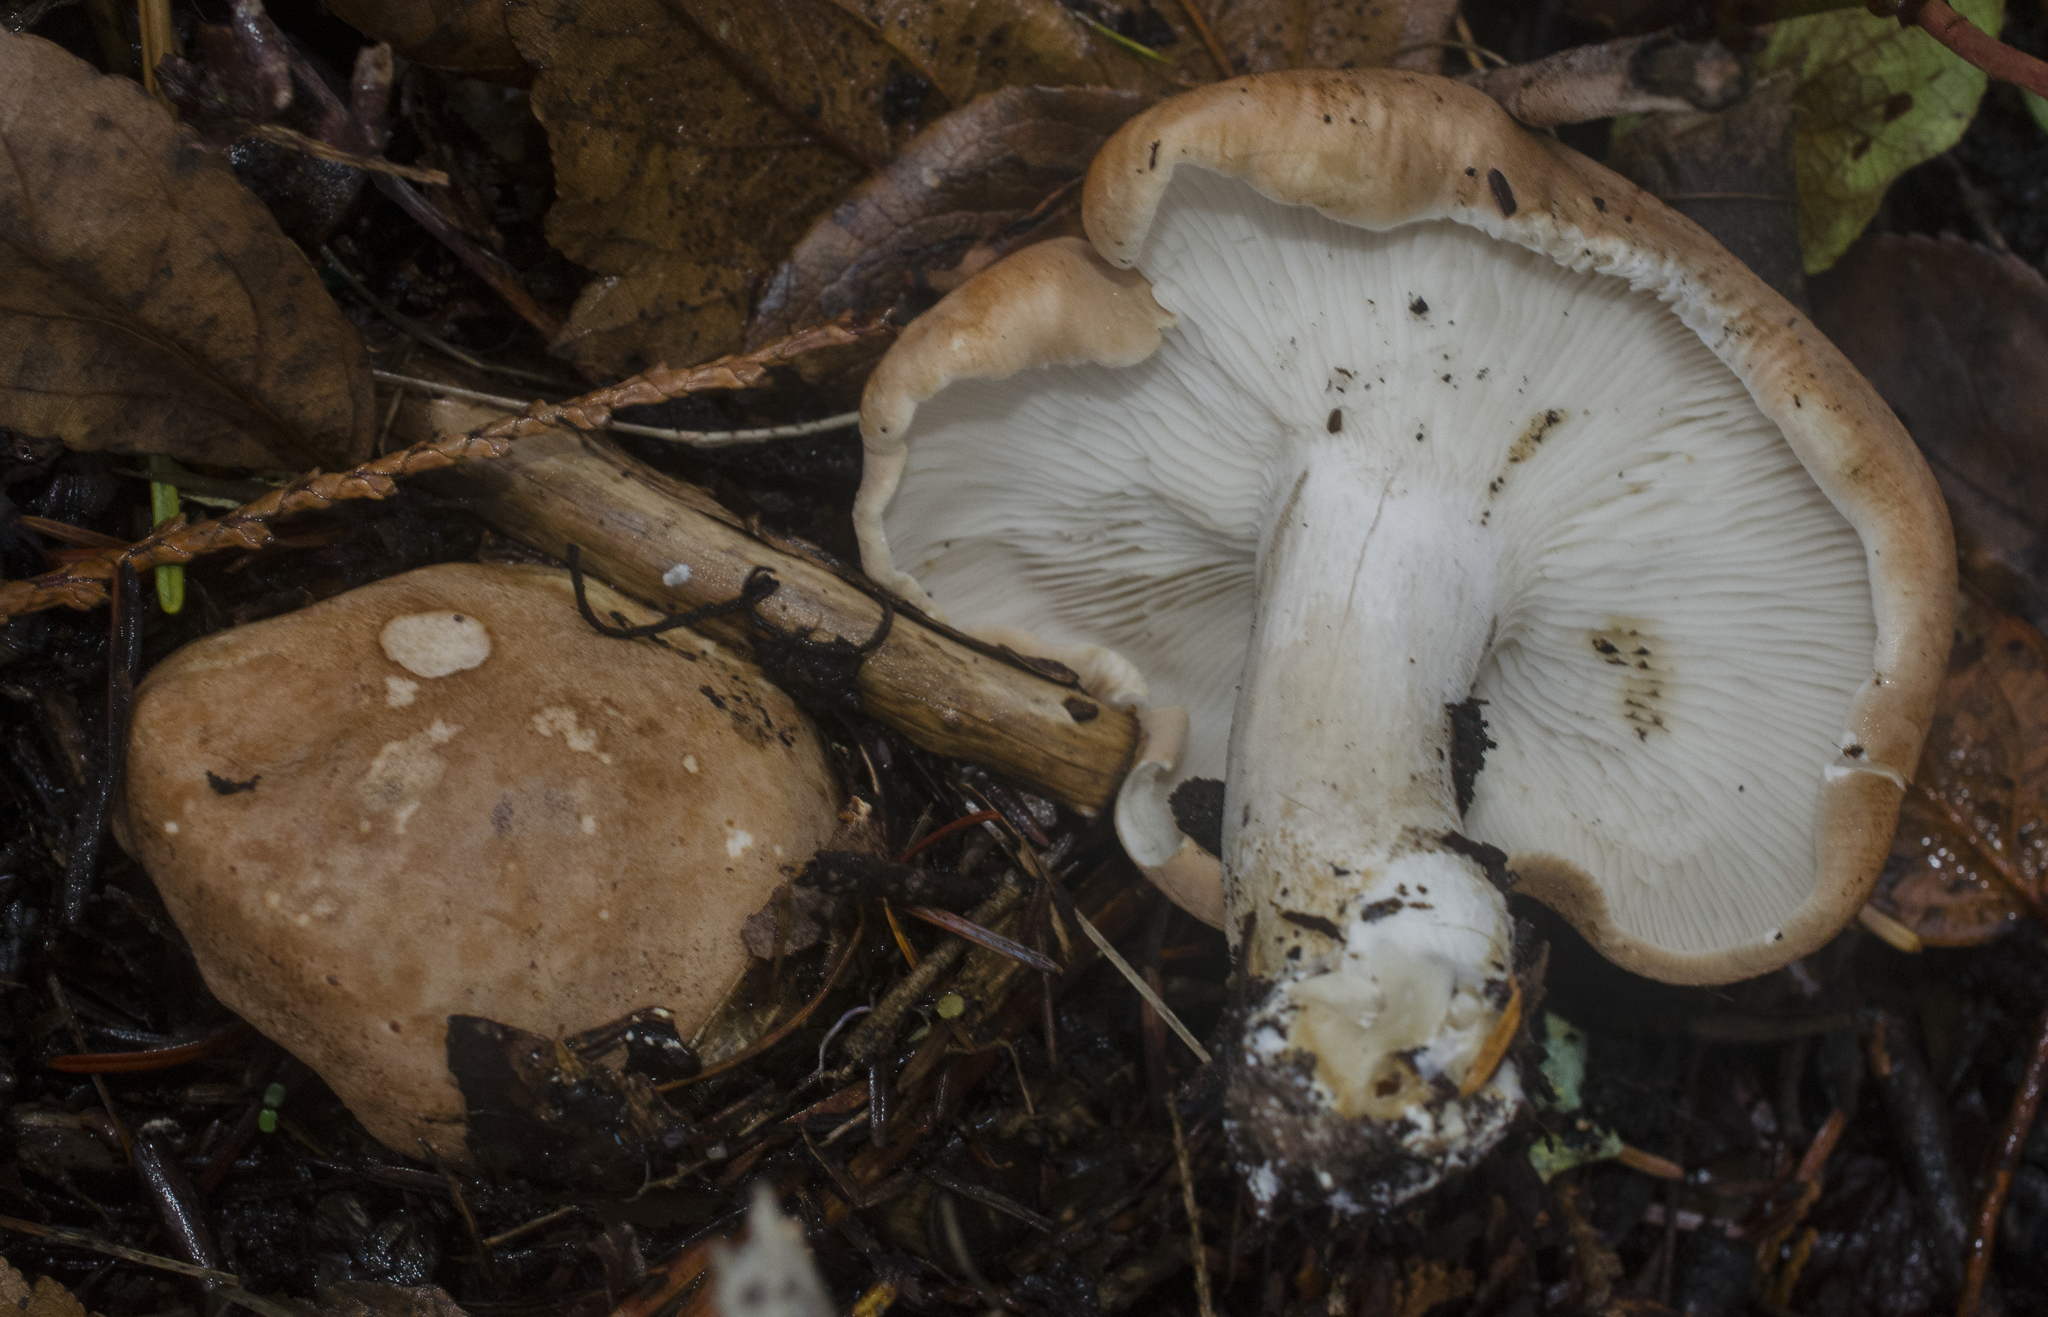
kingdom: Fungi
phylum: Basidiomycota
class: Agaricomycetes
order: Agaricales
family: Tricholomataceae
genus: Leucopaxillus
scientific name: Leucopaxillus gentianeus
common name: Bitter funnel
